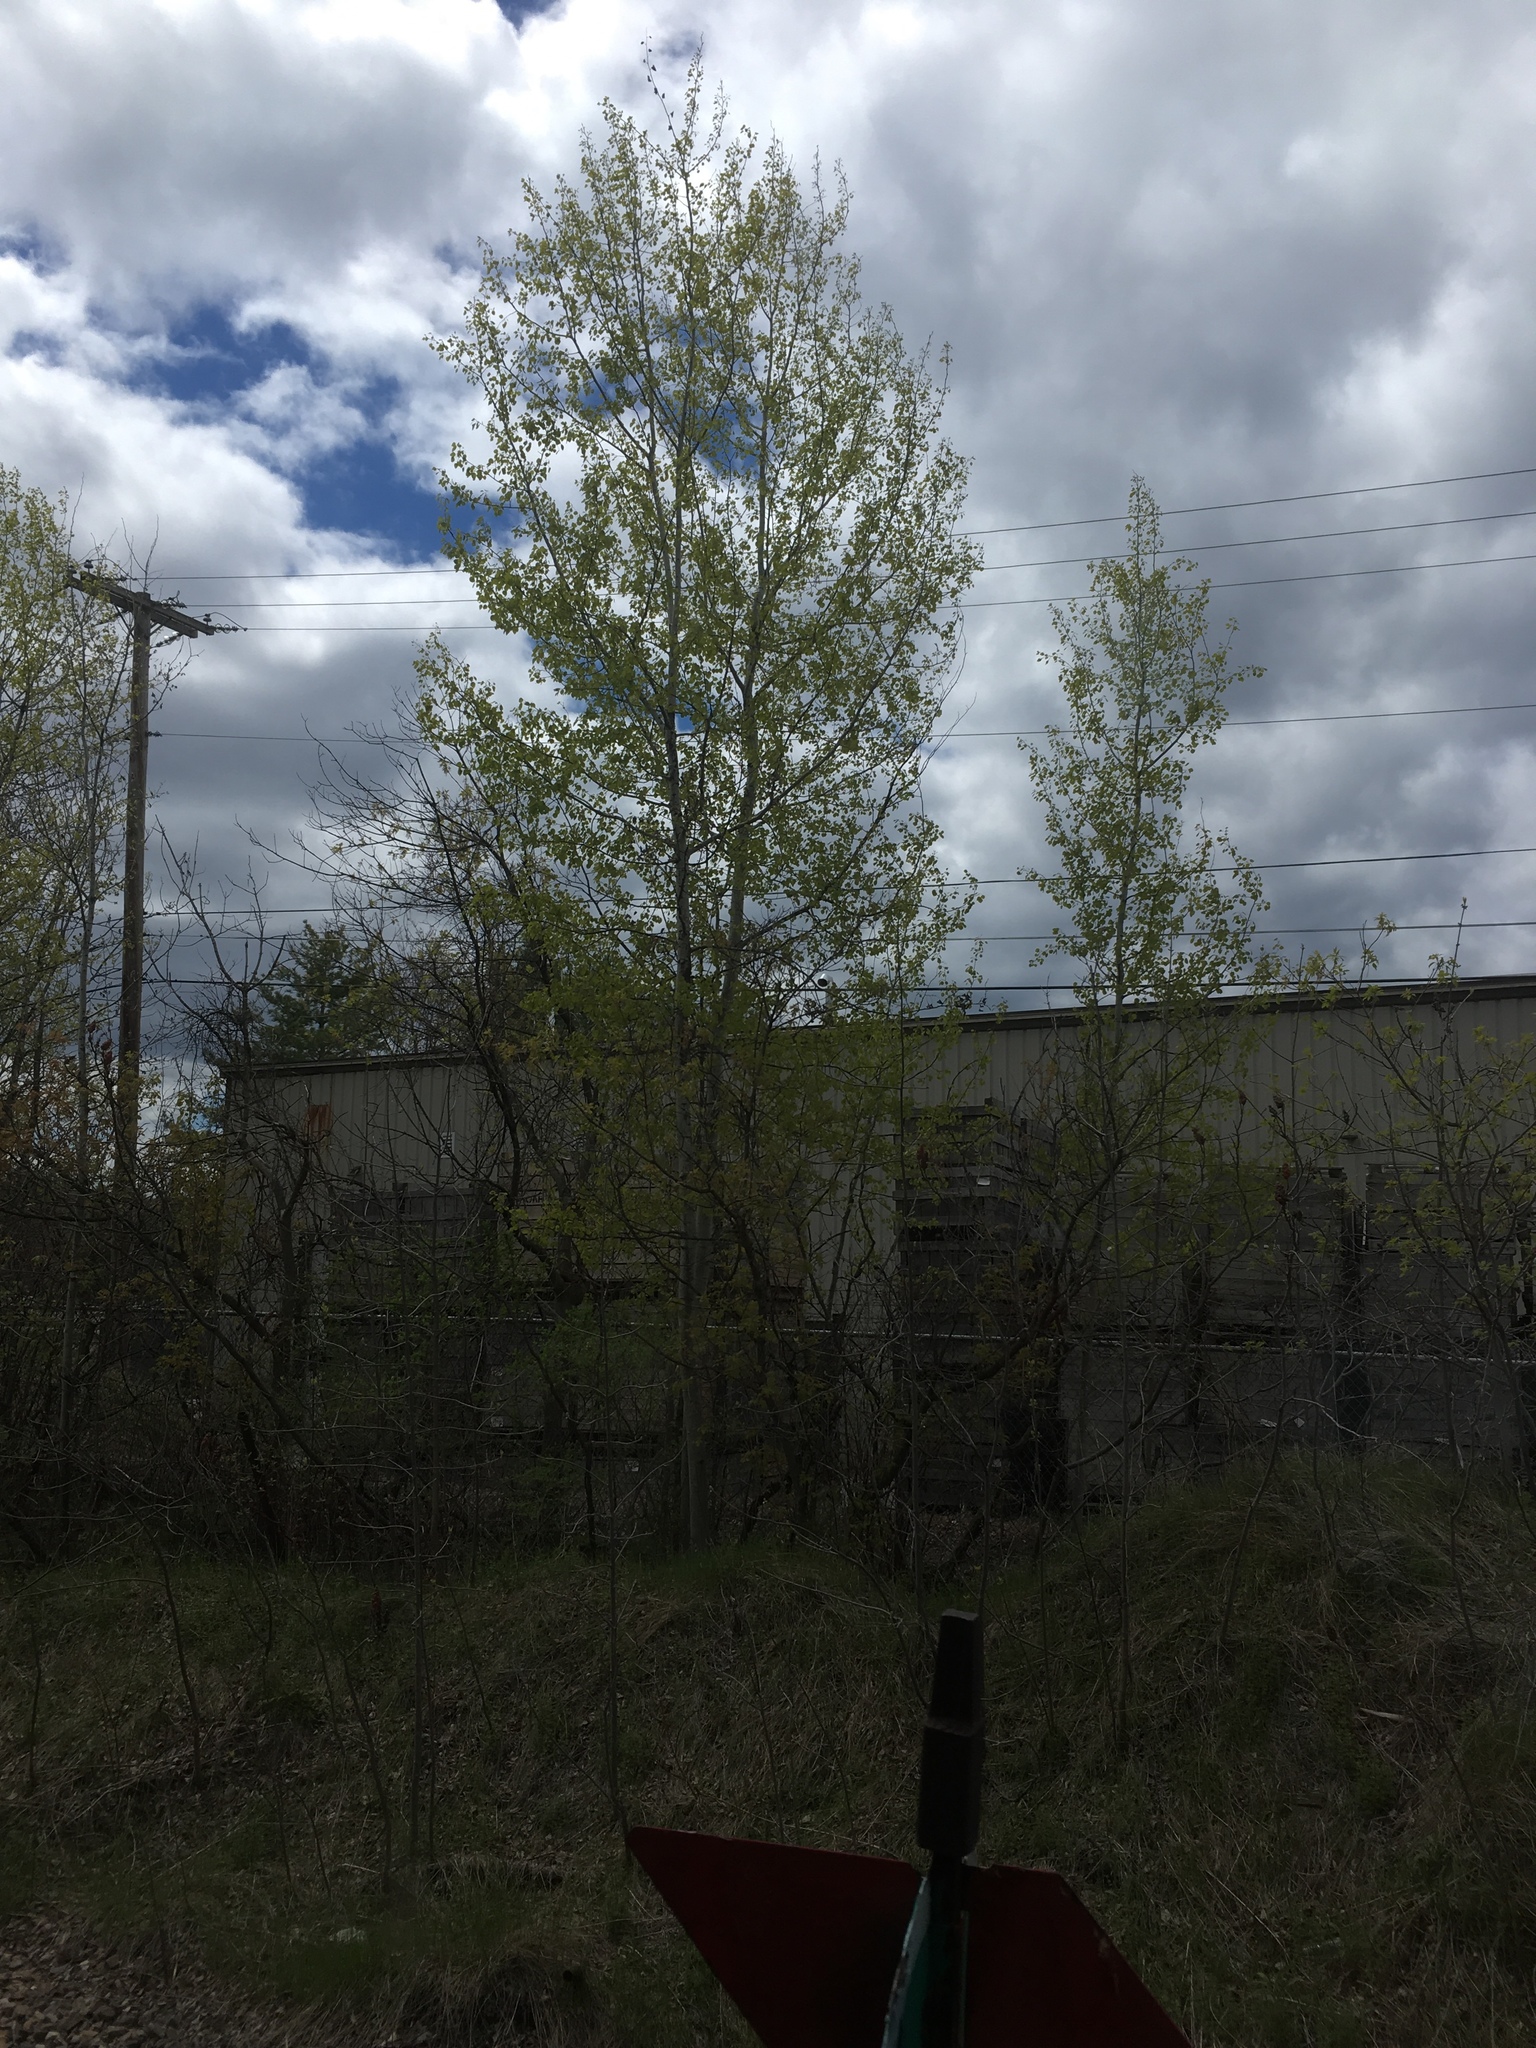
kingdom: Plantae
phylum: Tracheophyta
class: Magnoliopsida
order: Malpighiales
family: Salicaceae
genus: Populus
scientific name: Populus tremuloides
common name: Quaking aspen
